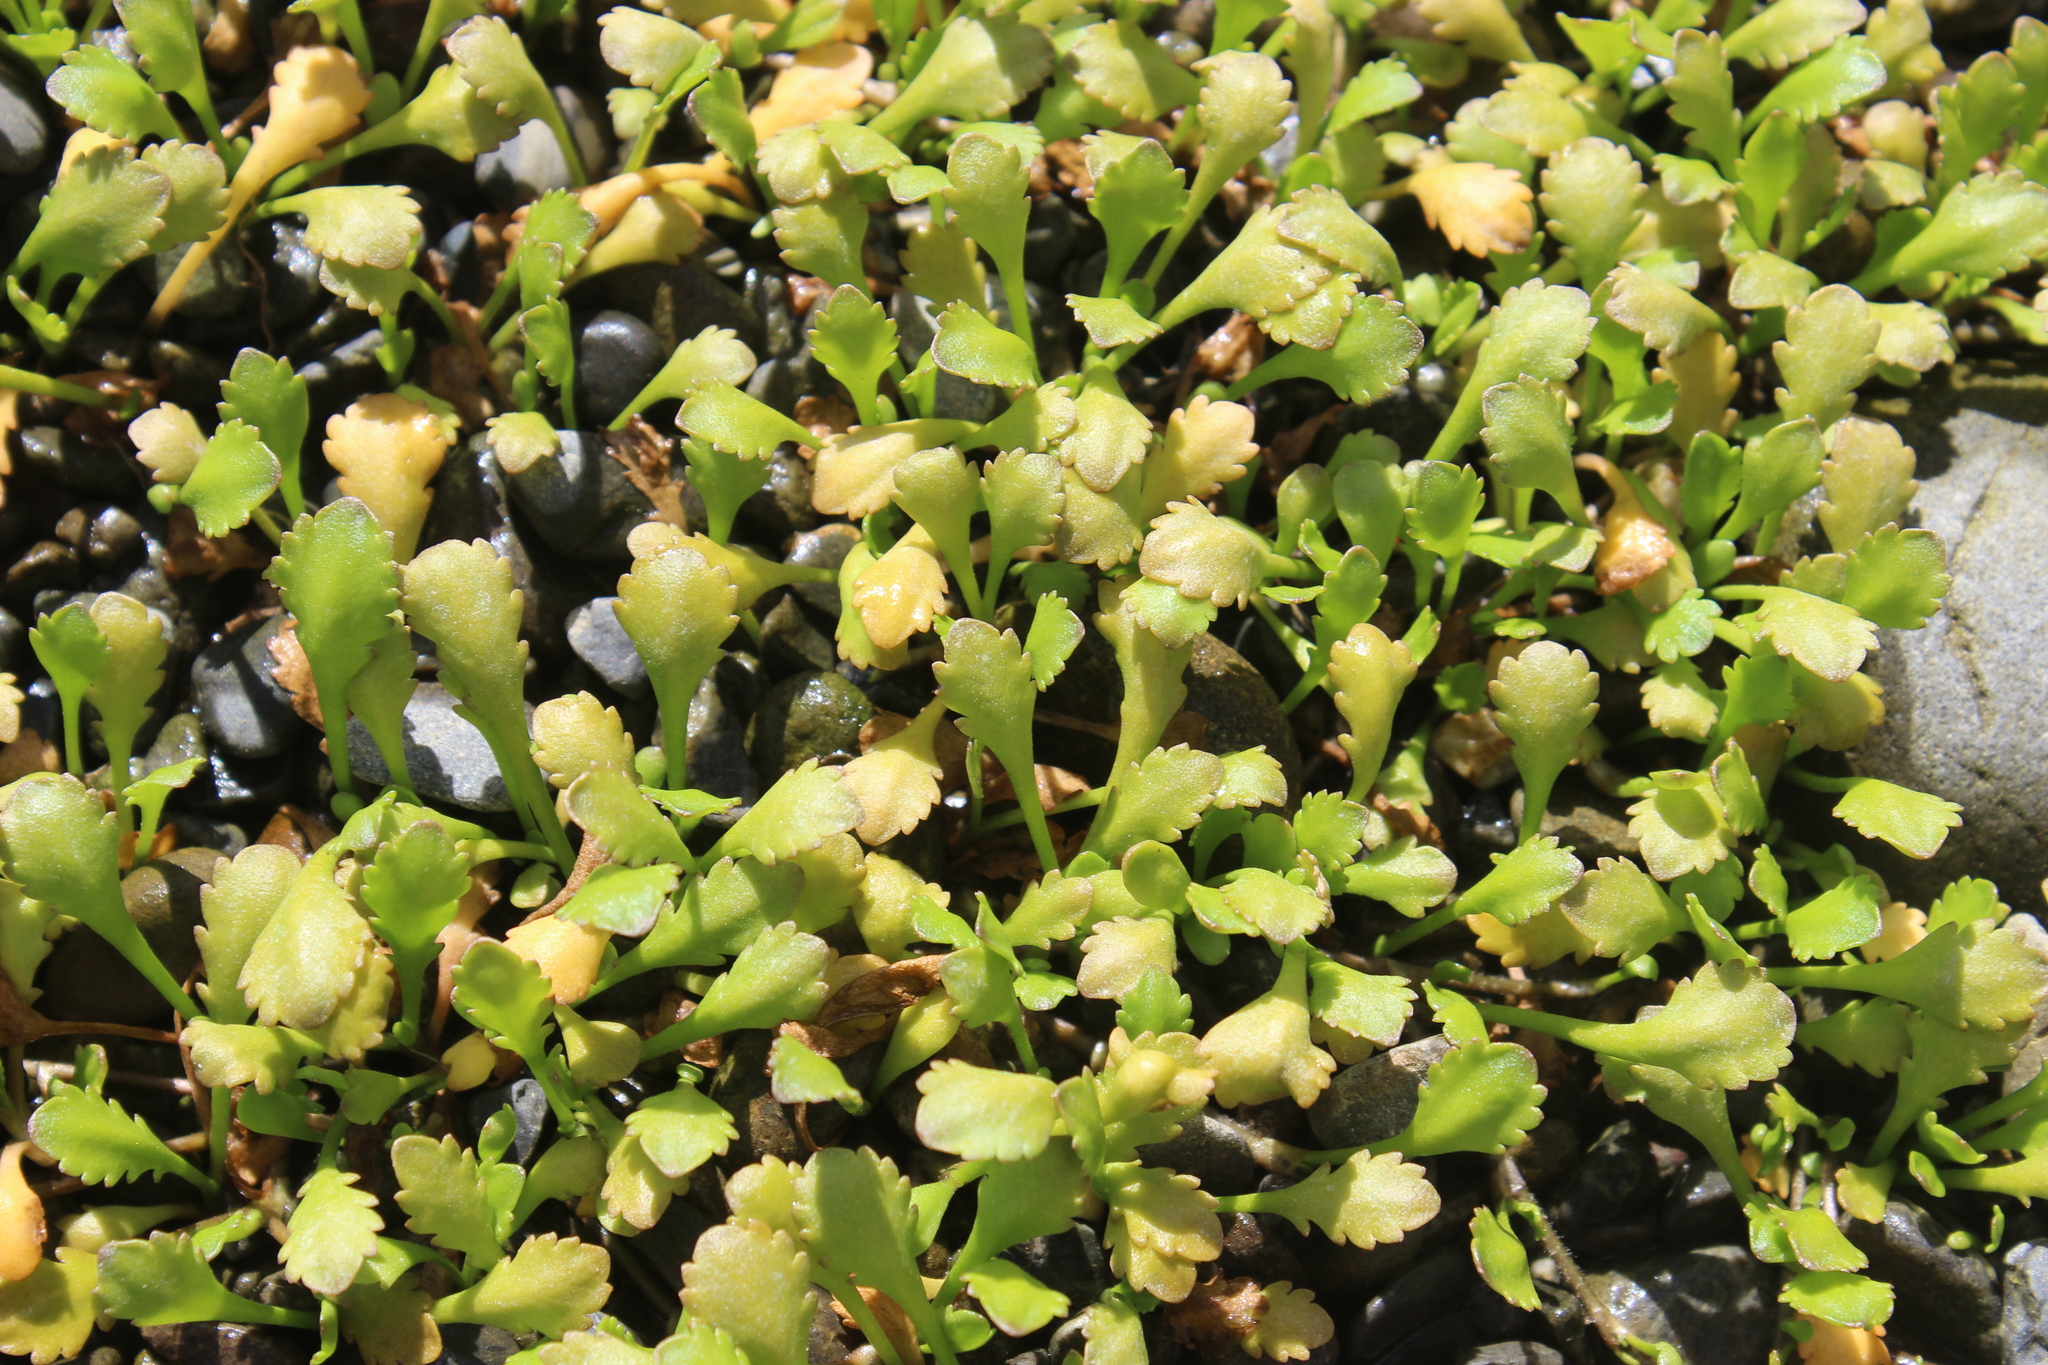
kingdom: Plantae
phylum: Tracheophyta
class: Magnoliopsida
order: Asterales
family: Asteraceae
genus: Leptinella
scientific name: Leptinella dioica
